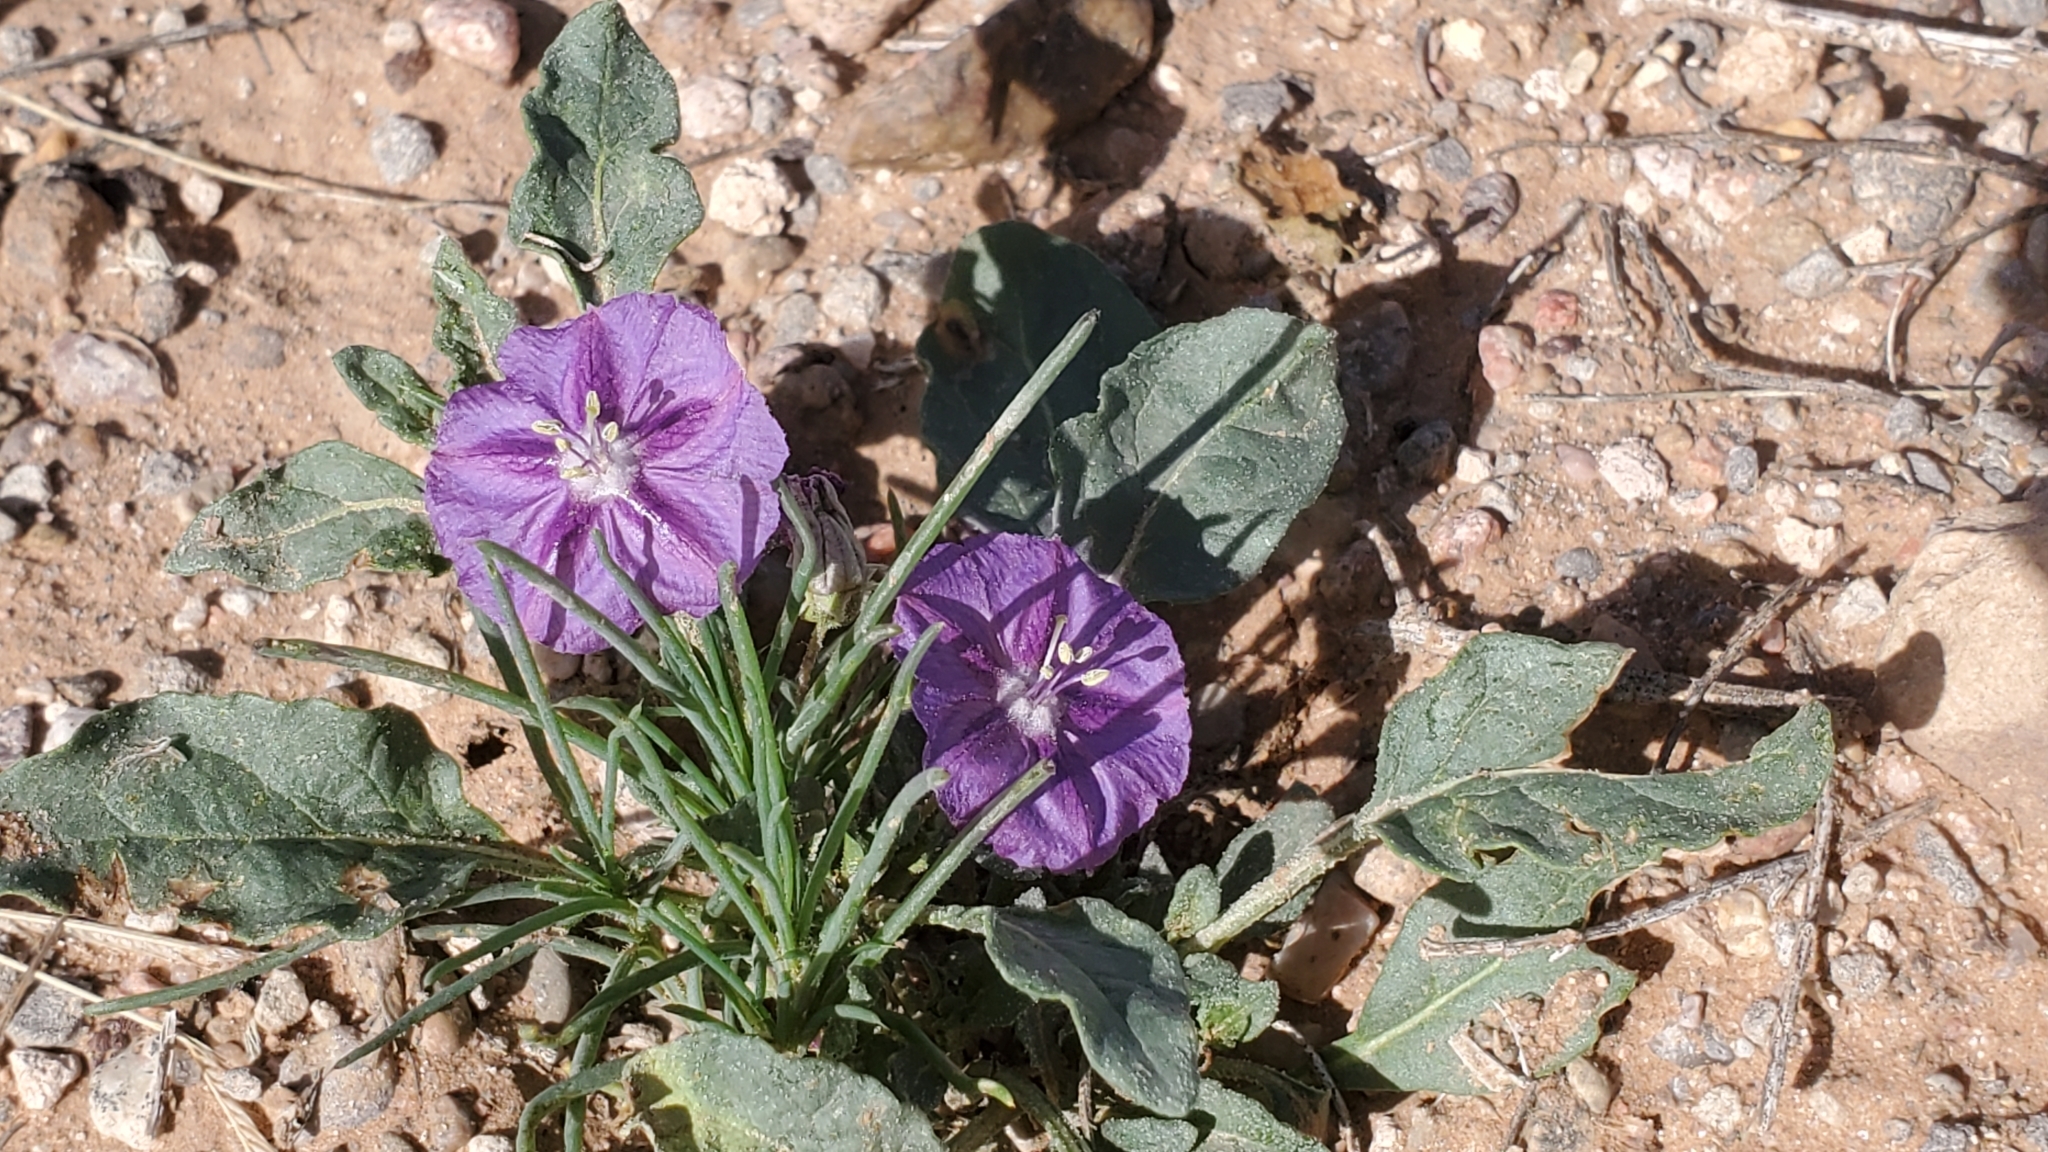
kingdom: Plantae
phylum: Tracheophyta
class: Magnoliopsida
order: Solanales
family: Solanaceae
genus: Quincula
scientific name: Quincula lobata
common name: Purple-ground-cherry
